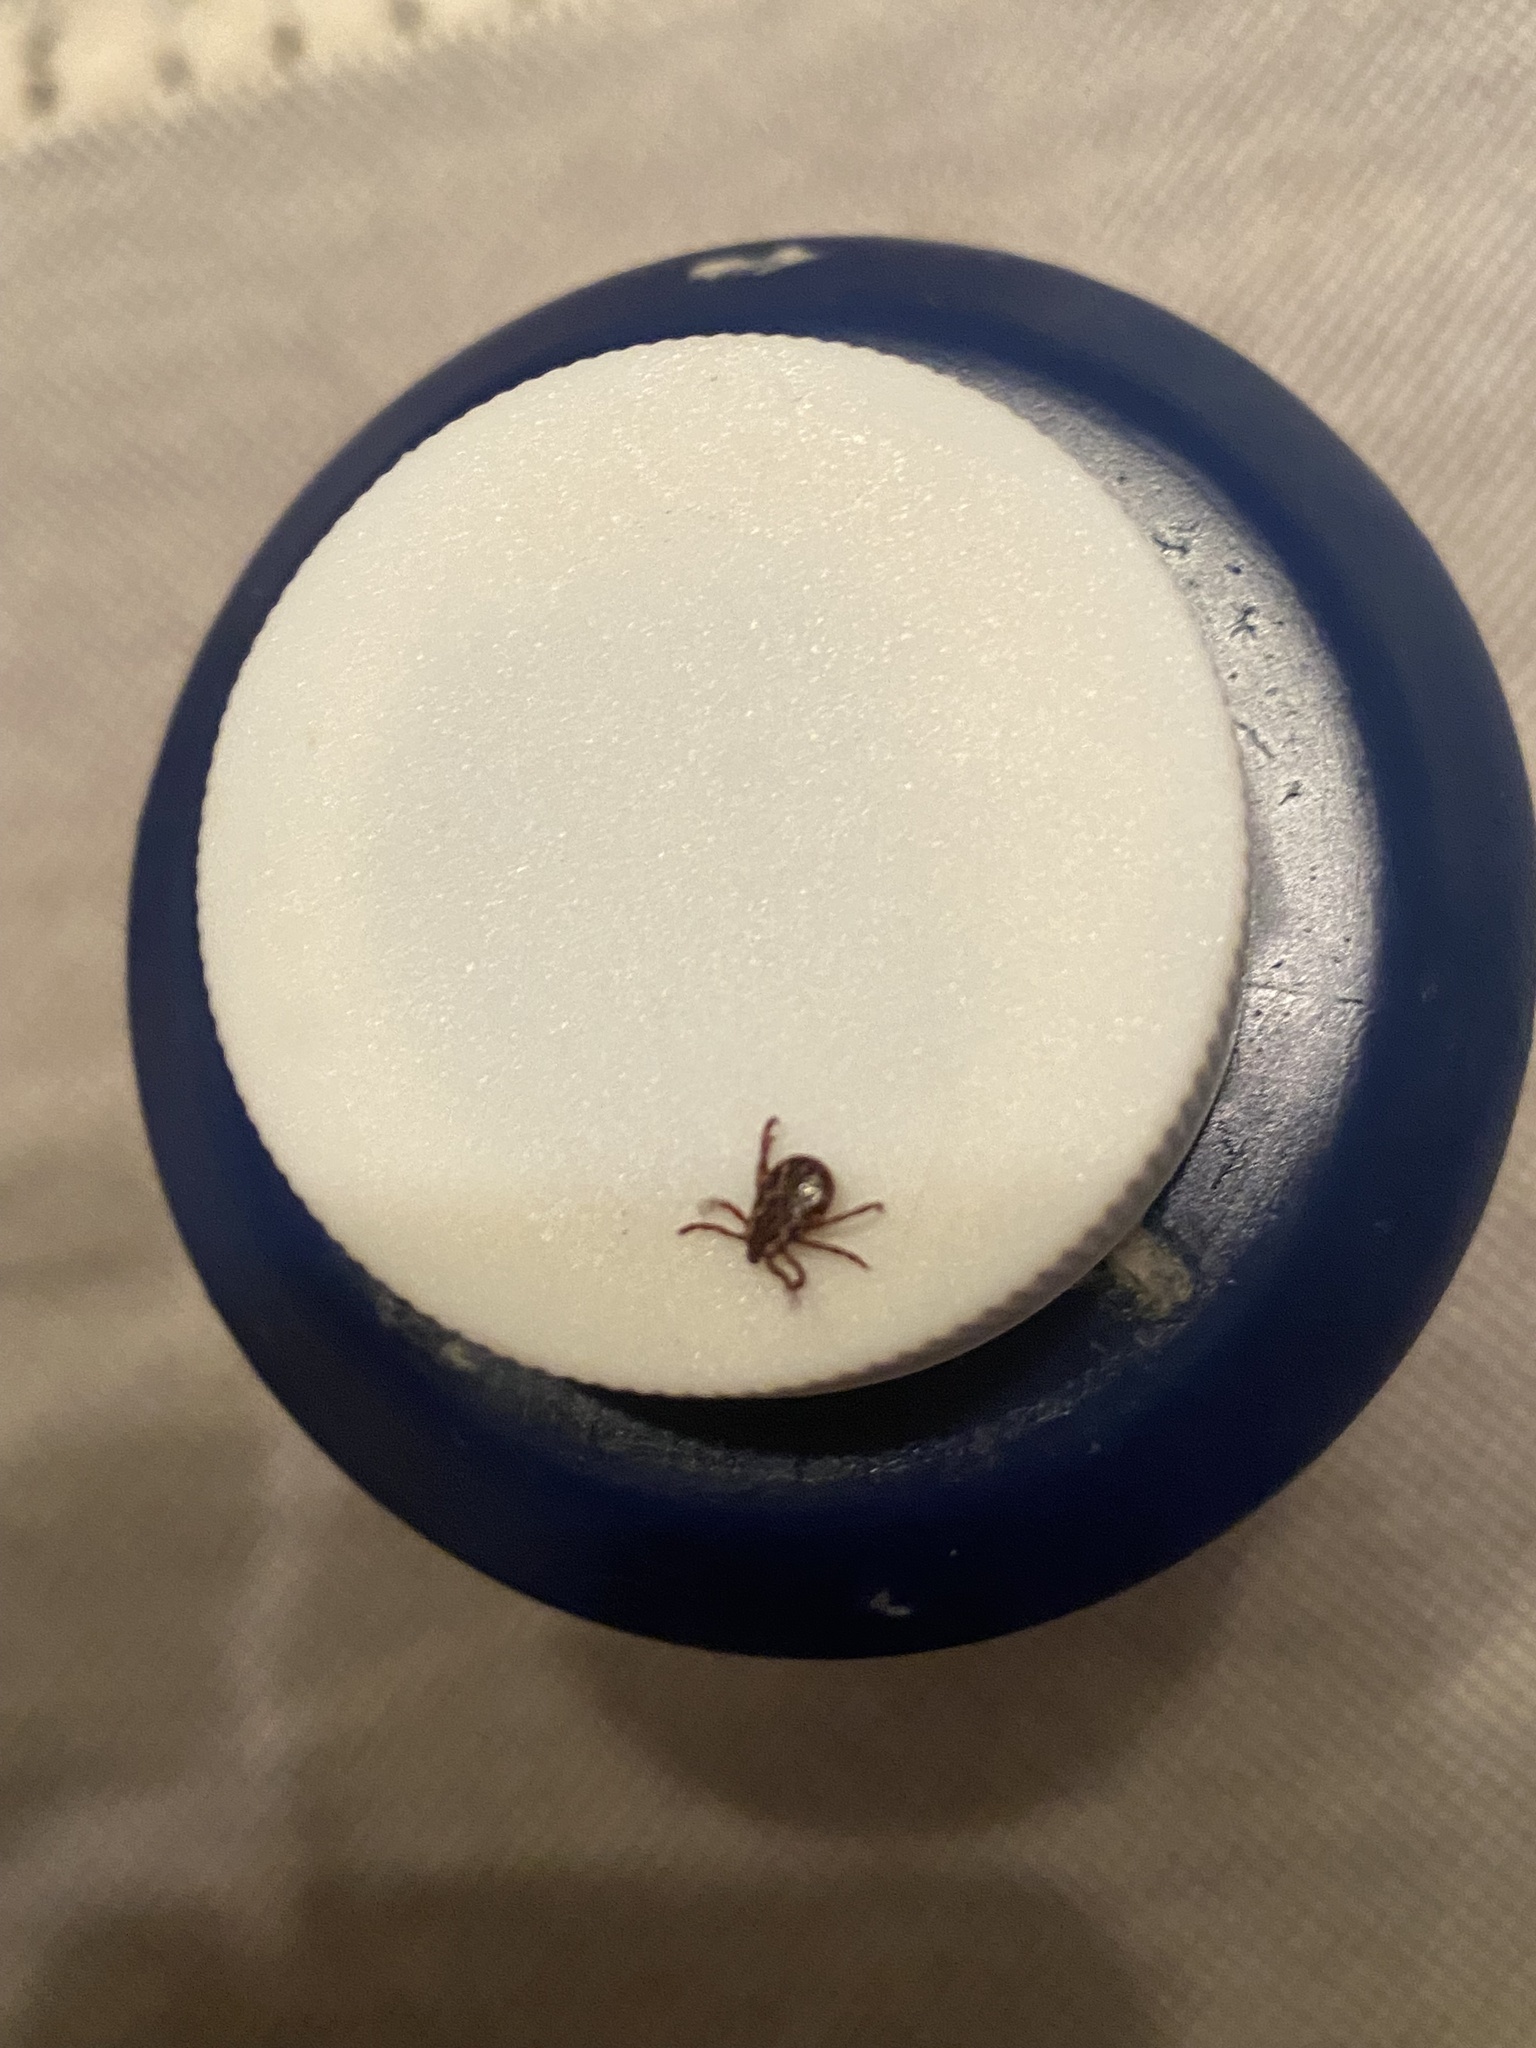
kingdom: Animalia
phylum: Arthropoda
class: Arachnida
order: Ixodida
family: Ixodidae
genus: Dermacentor
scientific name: Dermacentor variabilis
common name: American dog tick
